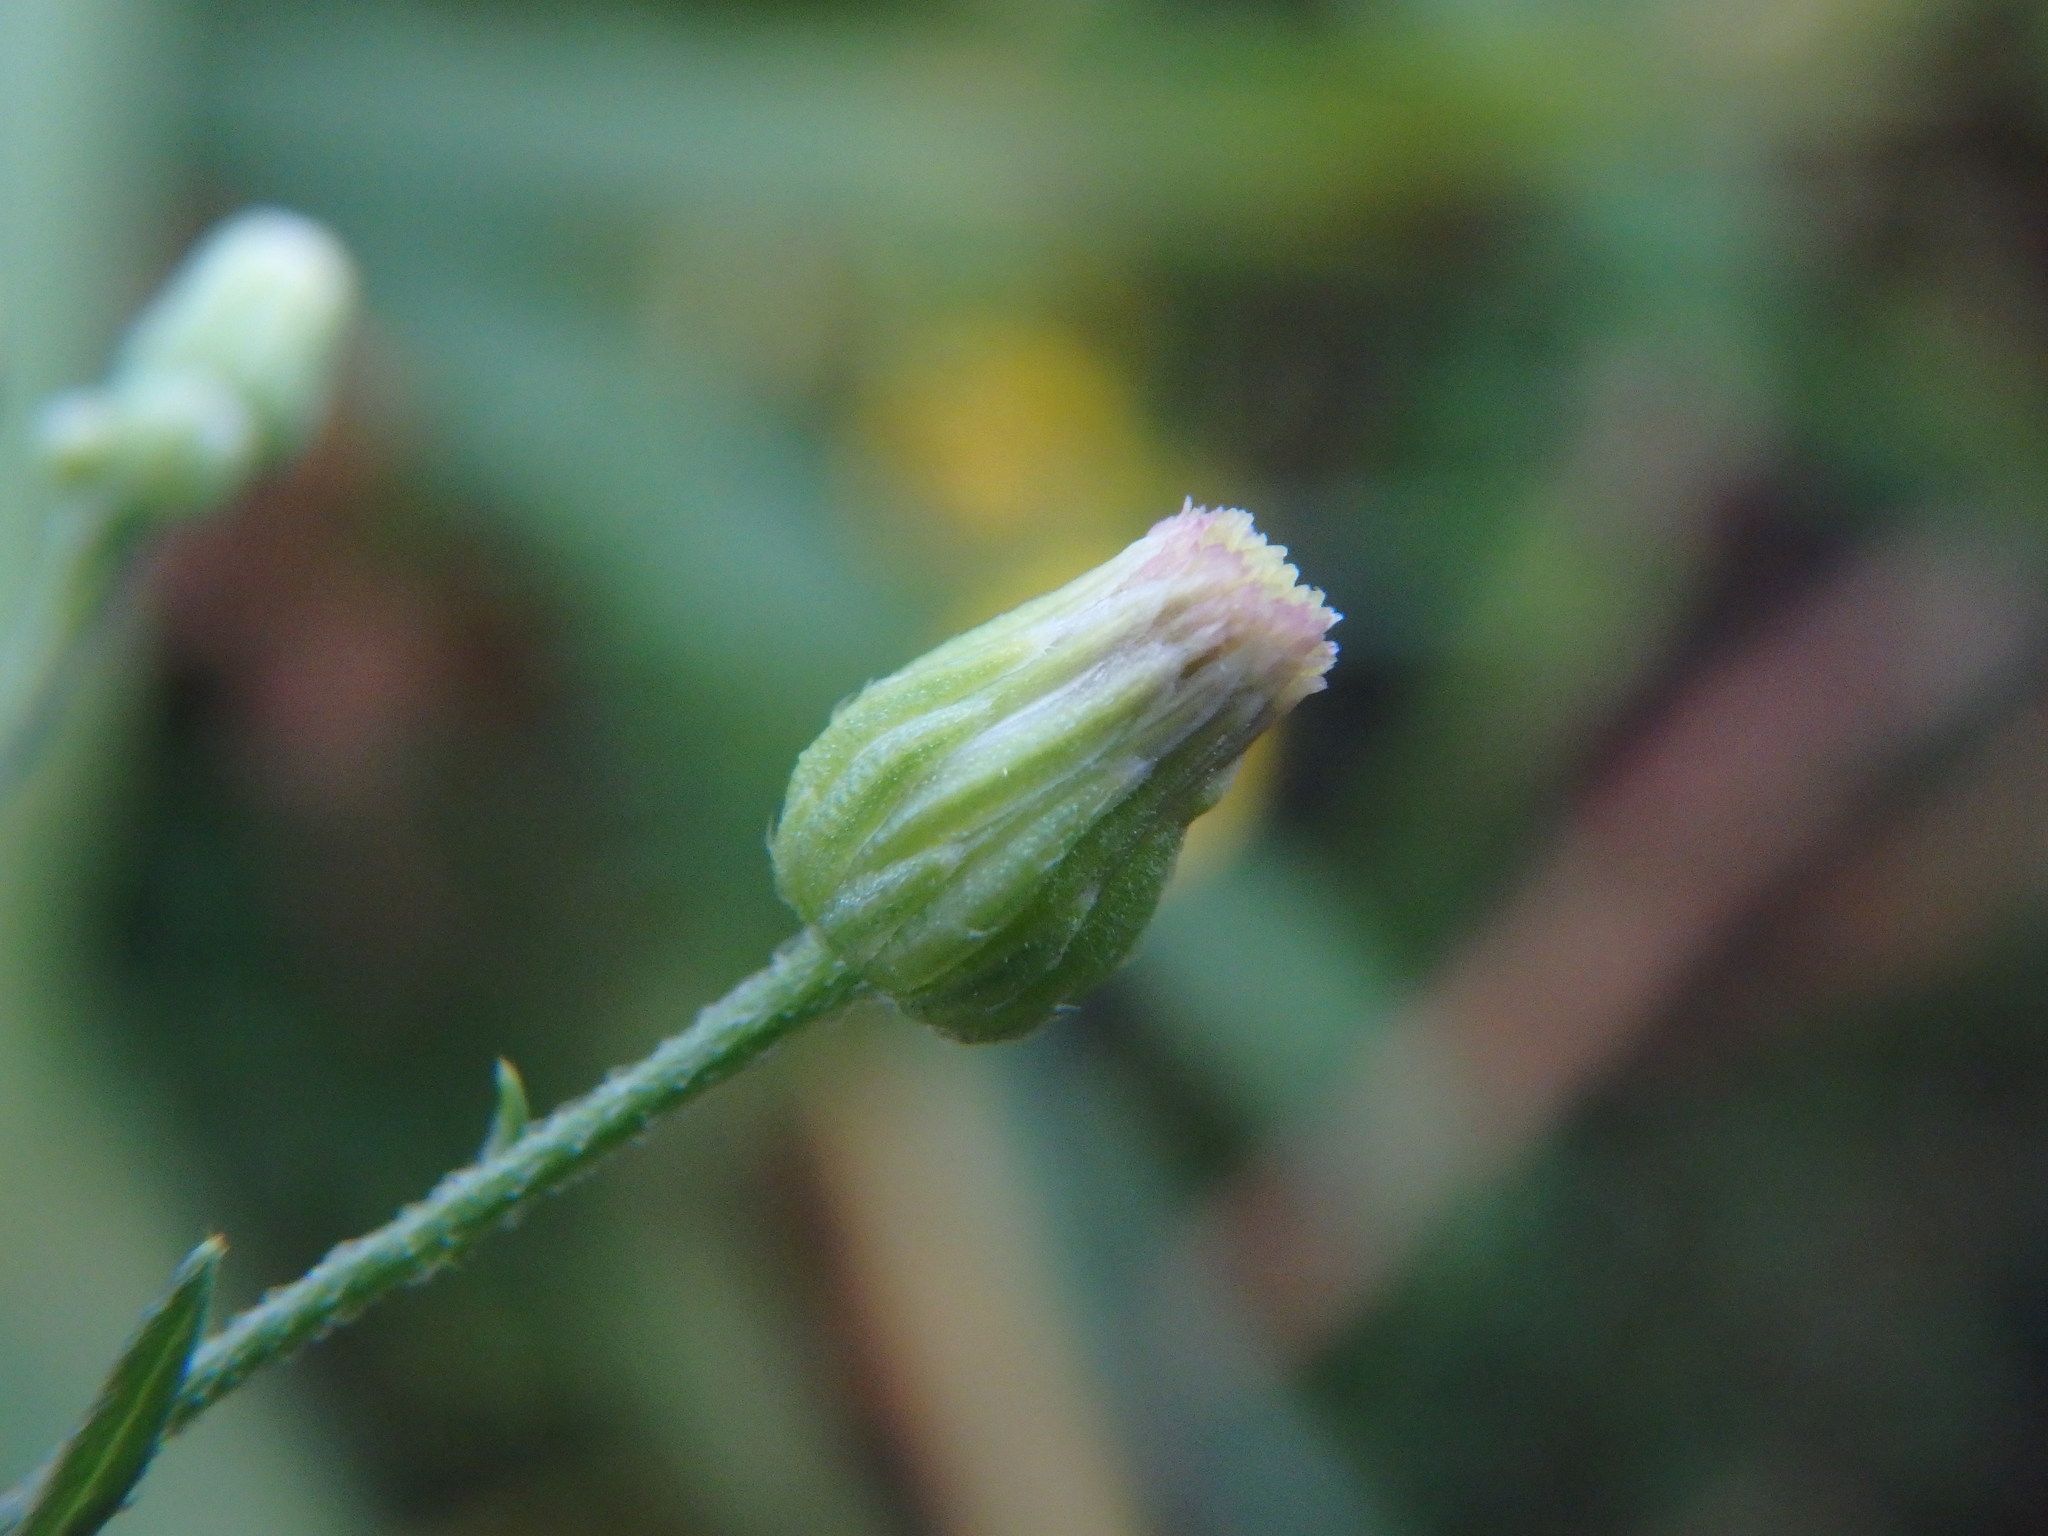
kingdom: Plantae
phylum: Tracheophyta
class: Magnoliopsida
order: Asterales
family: Asteraceae
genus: Erigeron
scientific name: Erigeron floribundus
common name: Bilbao fleabane
